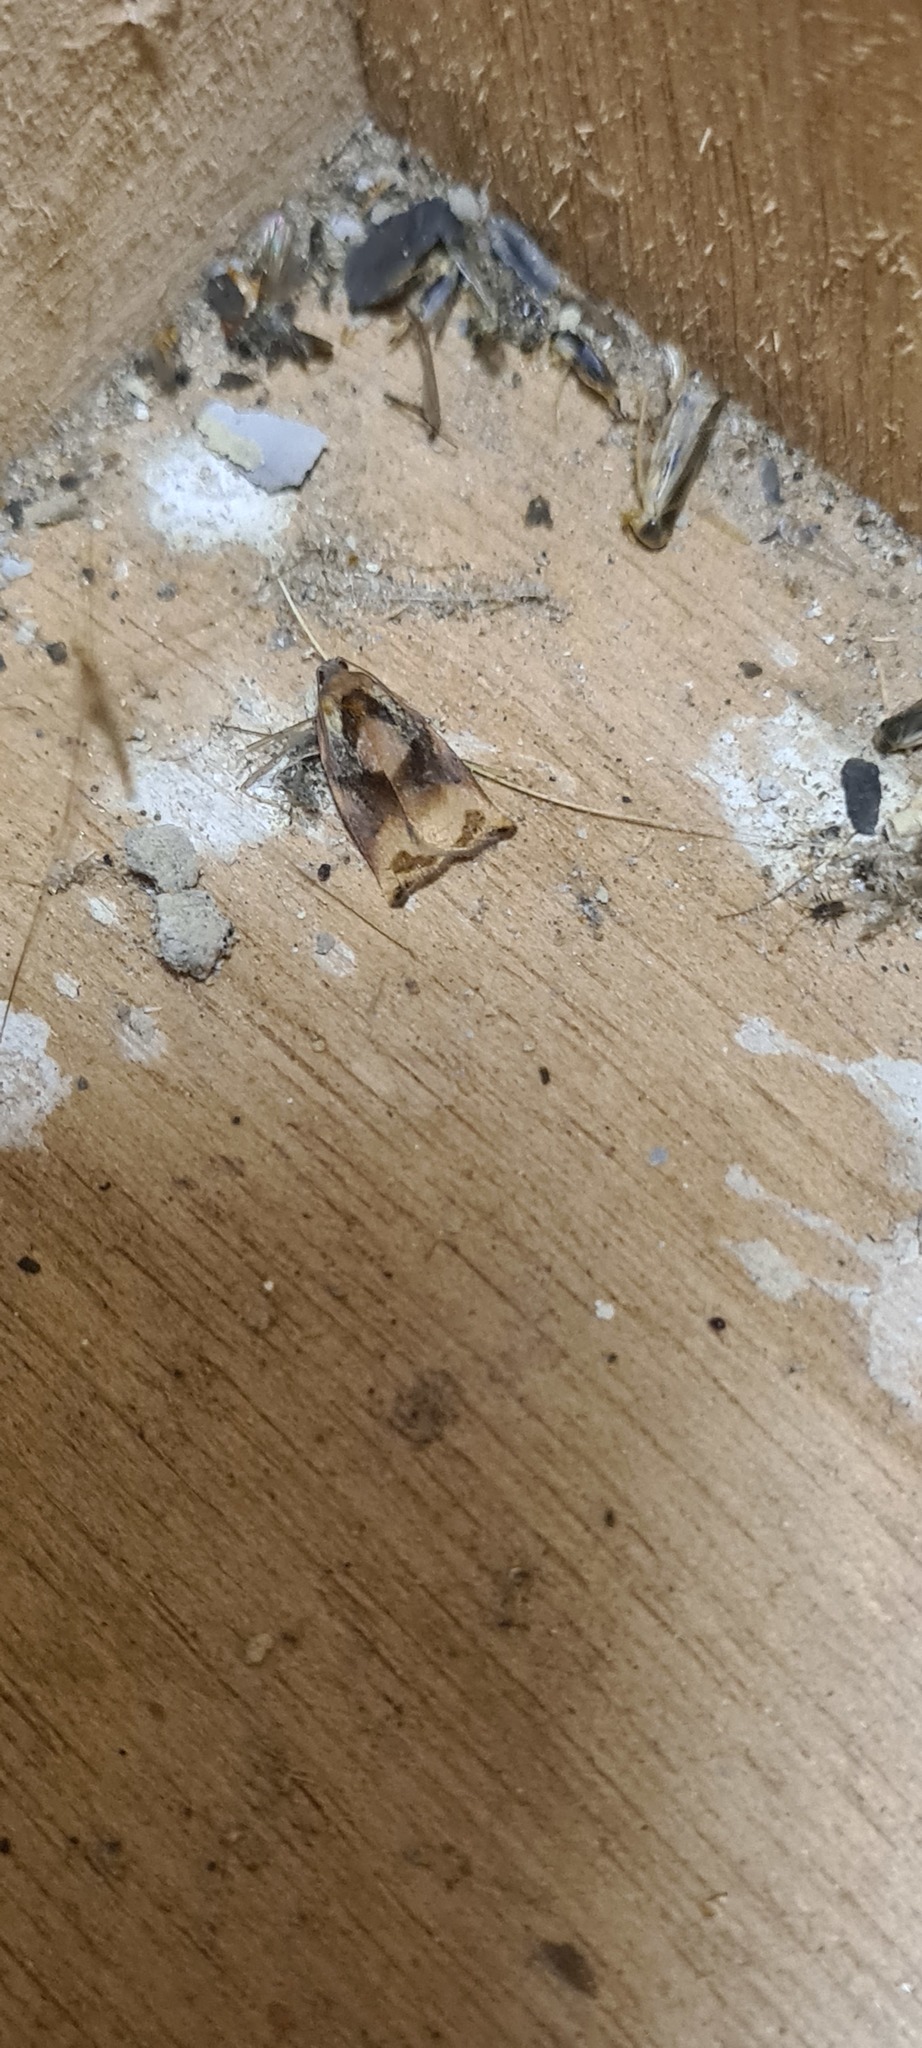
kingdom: Animalia
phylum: Arthropoda
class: Insecta
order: Lepidoptera
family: Tortricidae
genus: Archips
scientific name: Archips podana
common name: Large fruit-tree tortrix
